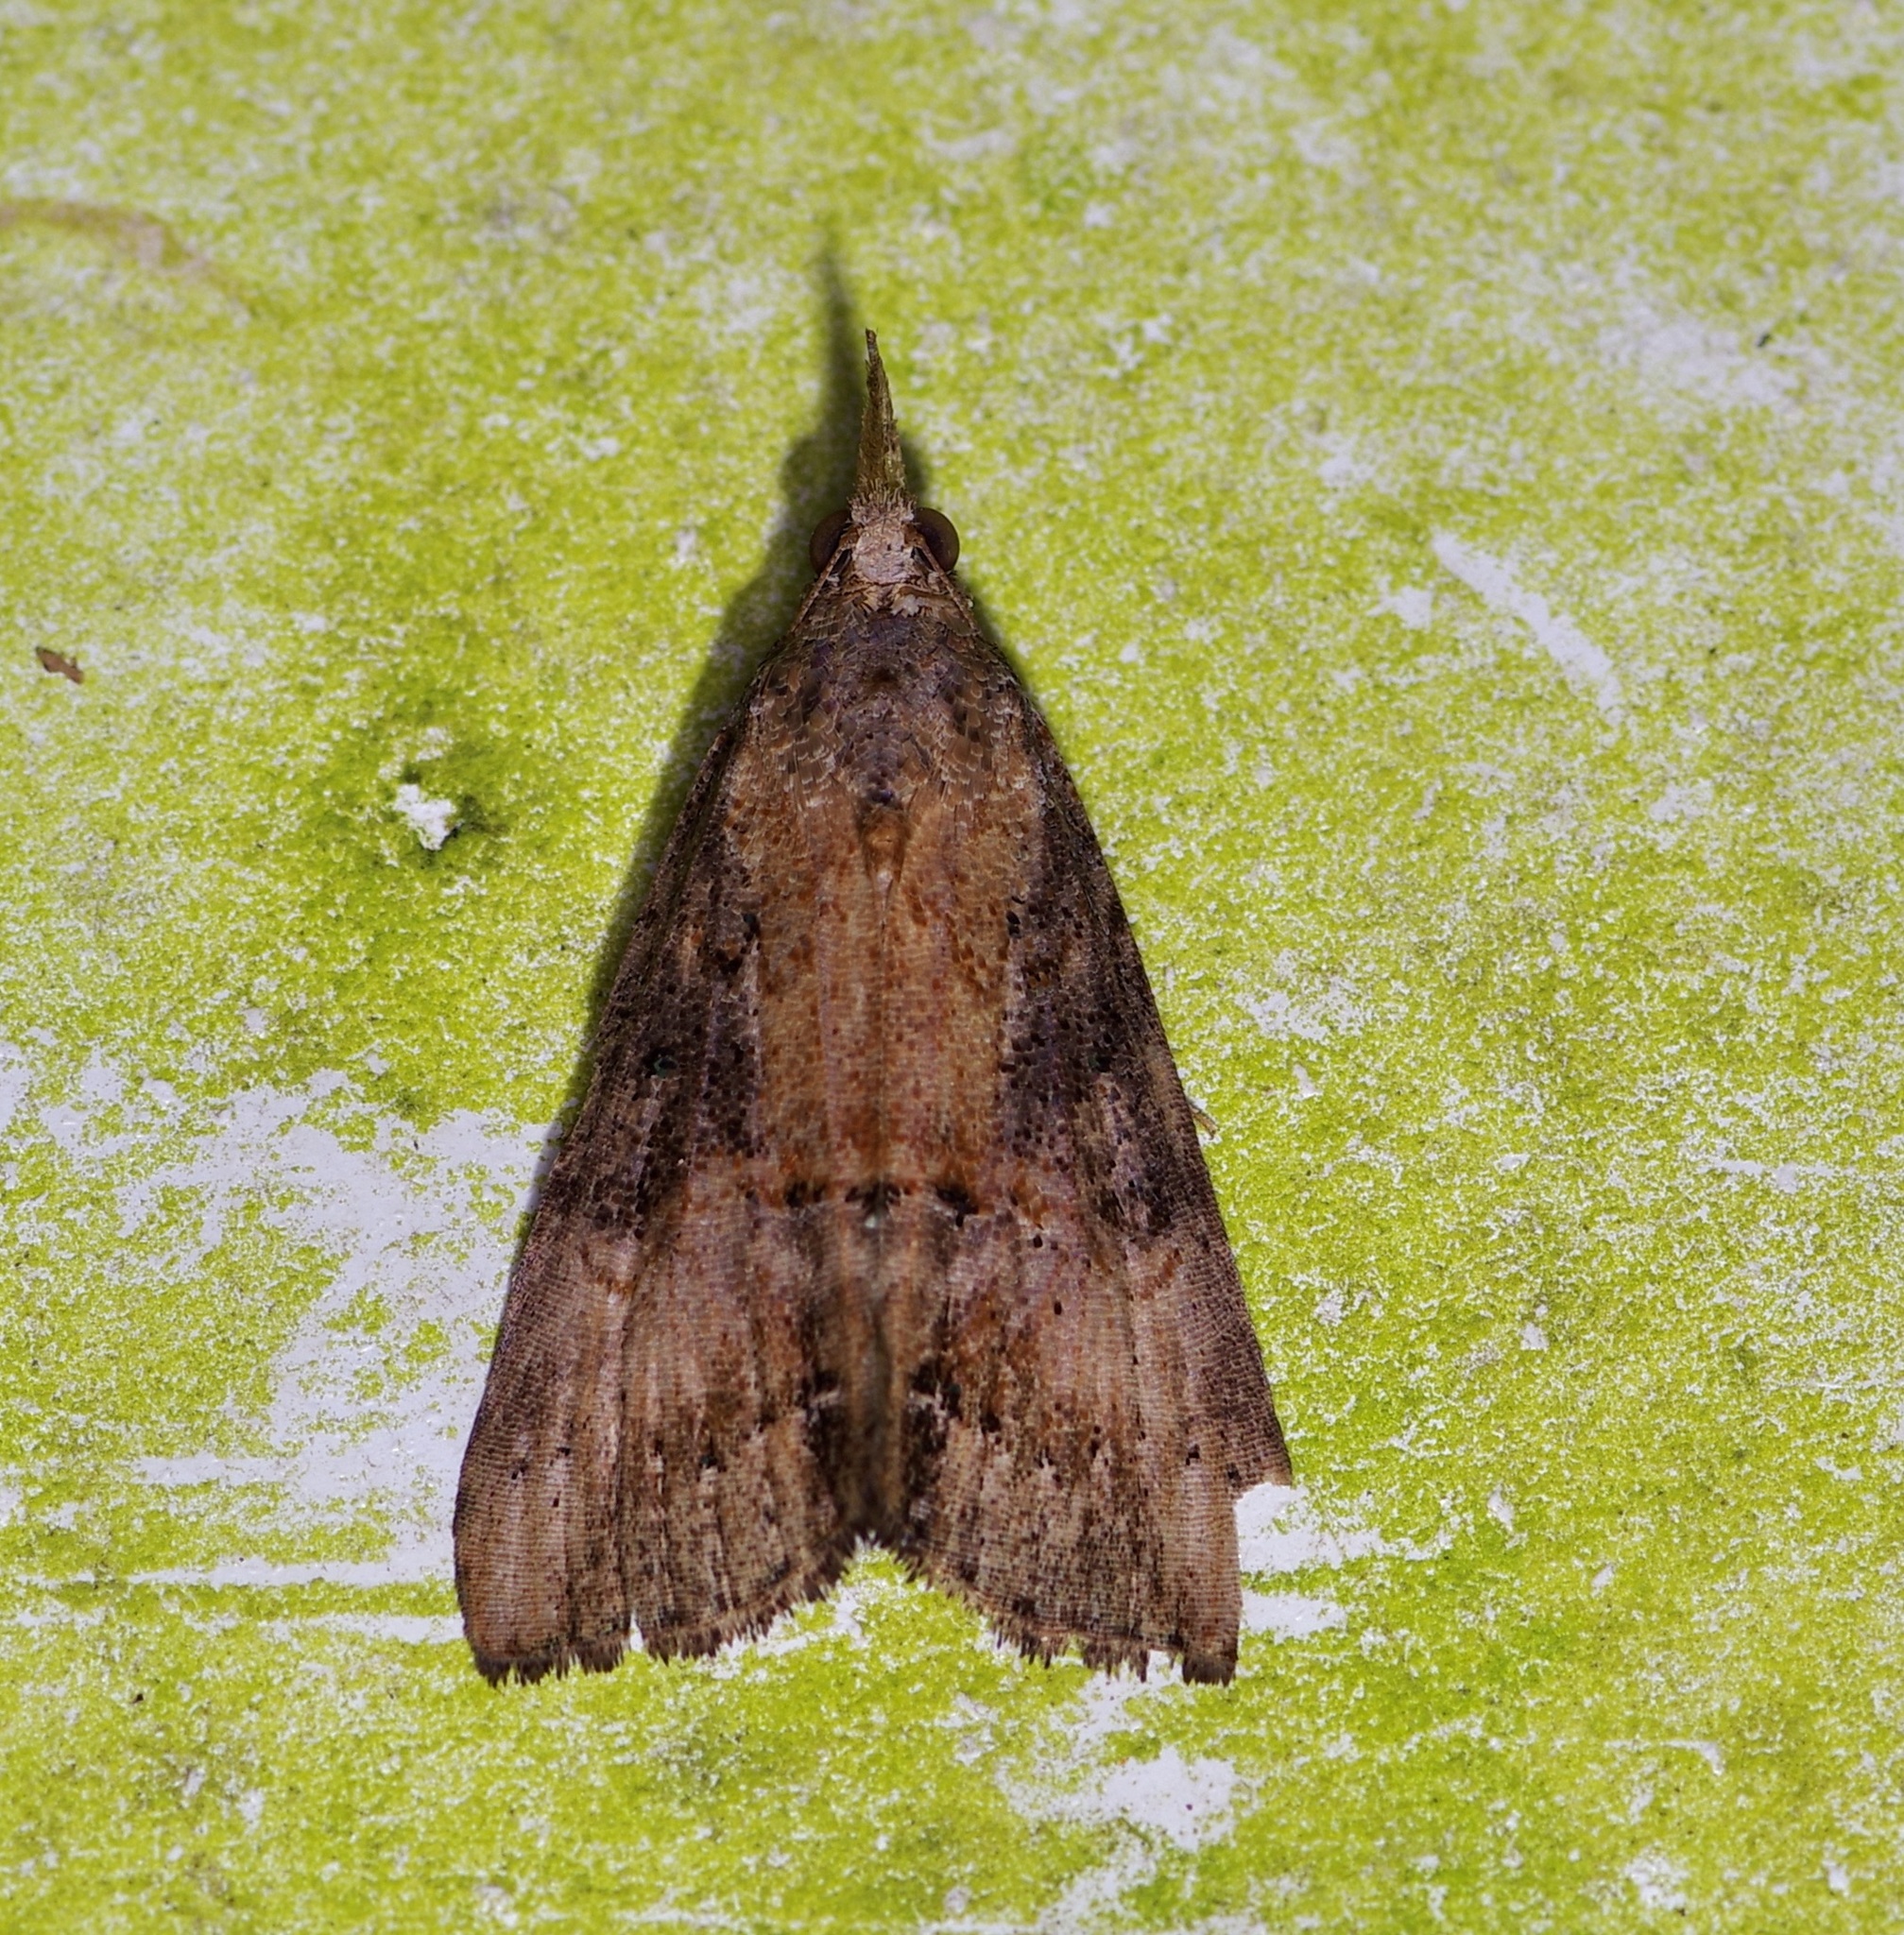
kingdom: Animalia
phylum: Arthropoda
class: Insecta
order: Lepidoptera
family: Erebidae
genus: Hypena
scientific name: Hypena scabra
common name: Green cloverworm
